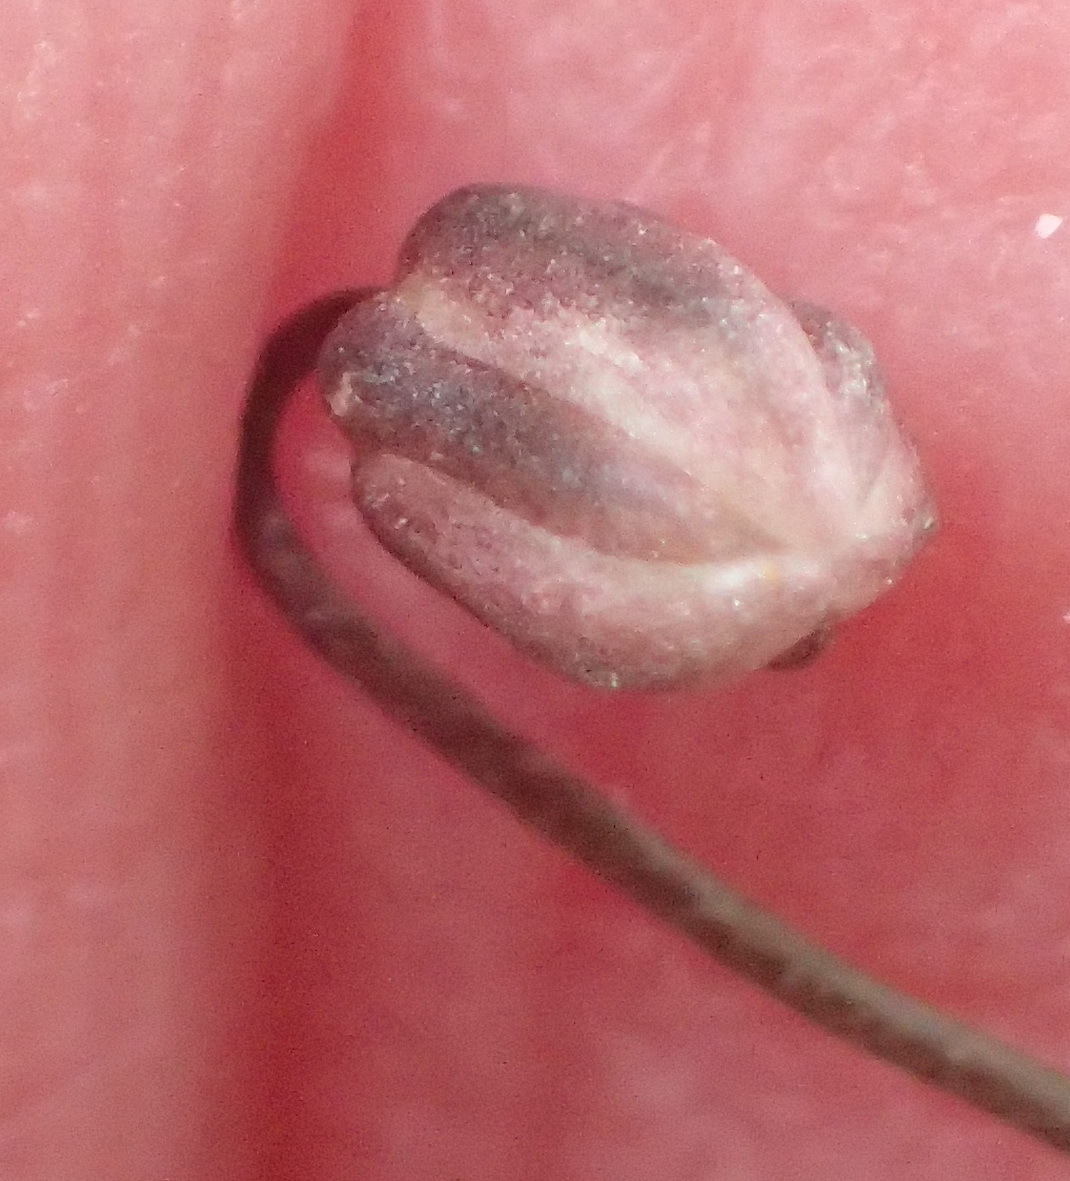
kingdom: Plantae
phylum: Tracheophyta
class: Liliopsida
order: Asparagales
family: Asparagaceae
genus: Drimia
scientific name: Drimia intricata
